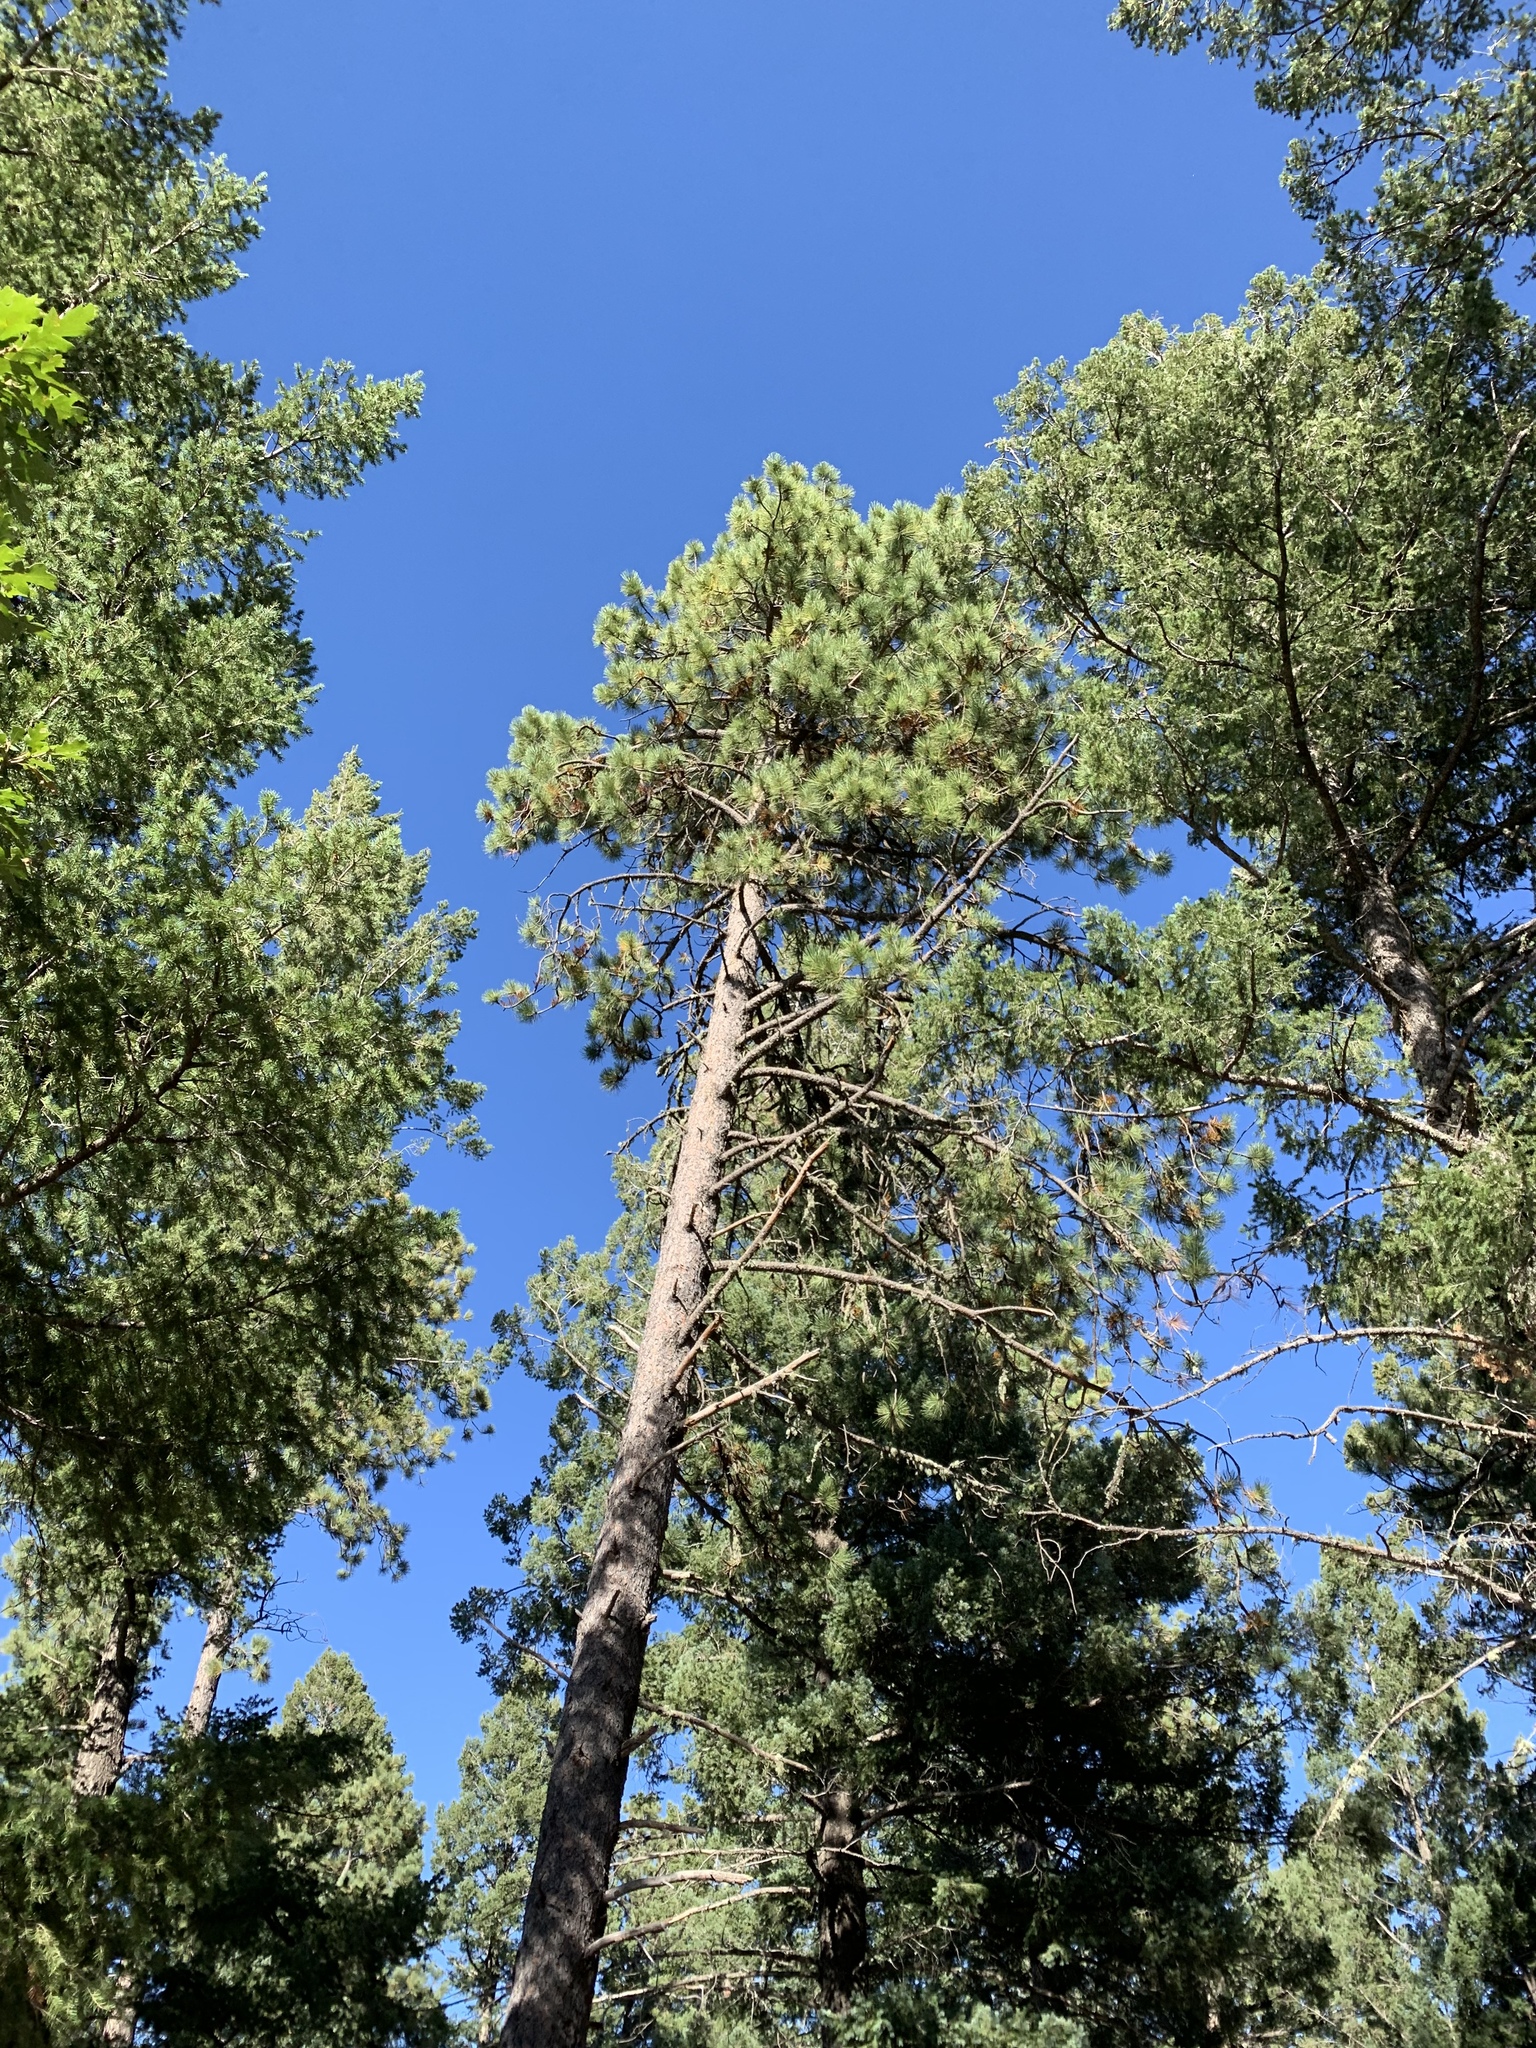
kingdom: Plantae
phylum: Tracheophyta
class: Pinopsida
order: Pinales
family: Pinaceae
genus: Pinus
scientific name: Pinus ponderosa
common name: Western yellow-pine
